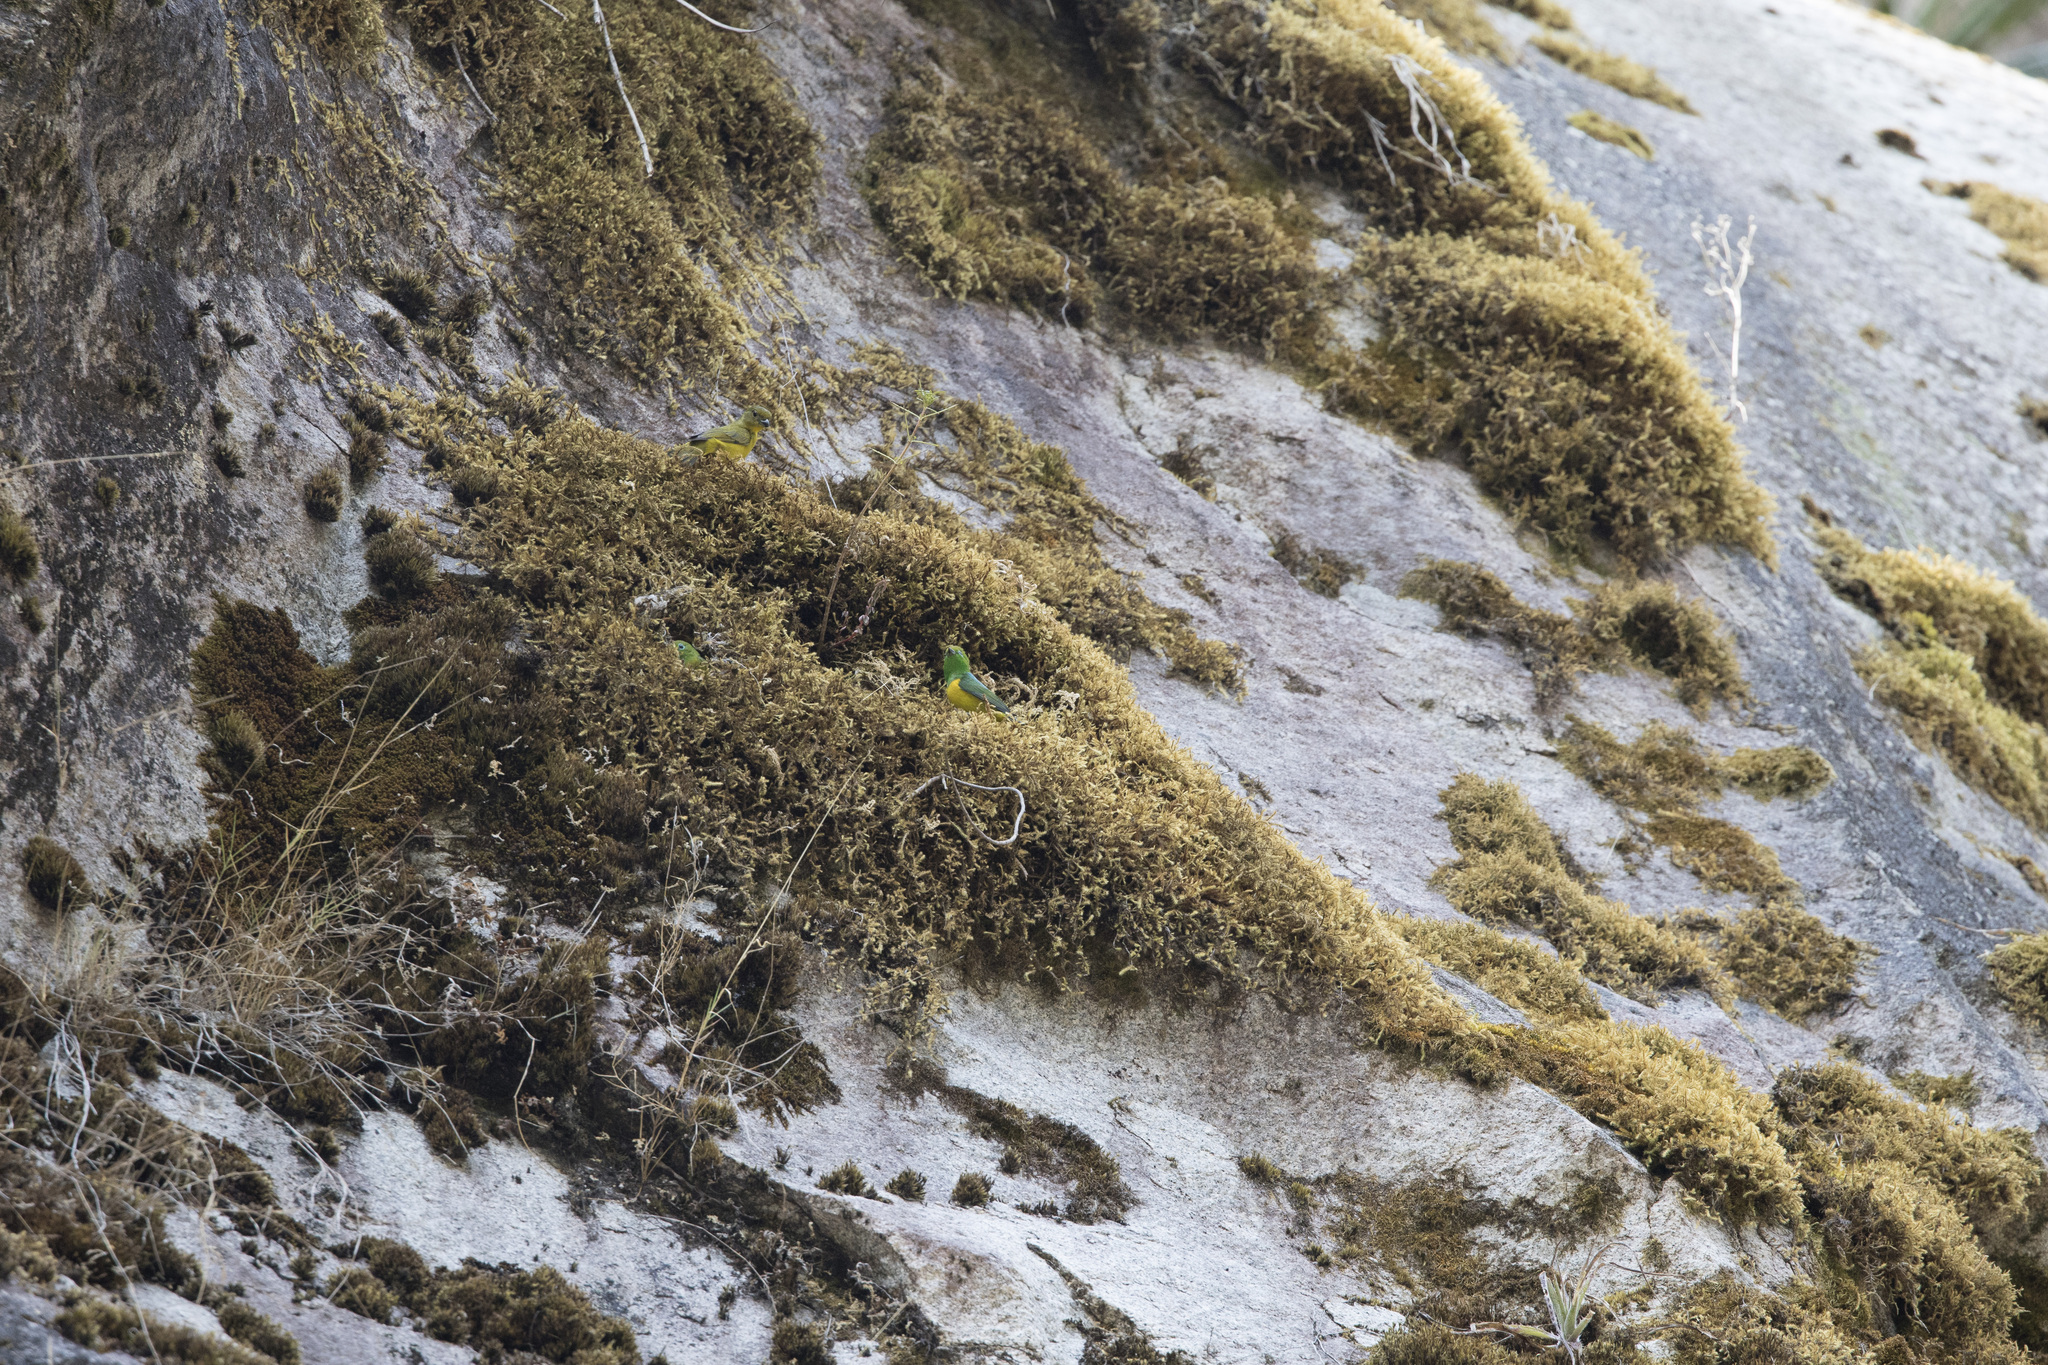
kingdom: Animalia
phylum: Chordata
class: Aves
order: Passeriformes
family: Fringillidae
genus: Euphonia
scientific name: Euphonia laniirostris
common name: Thick-billed euphonia
